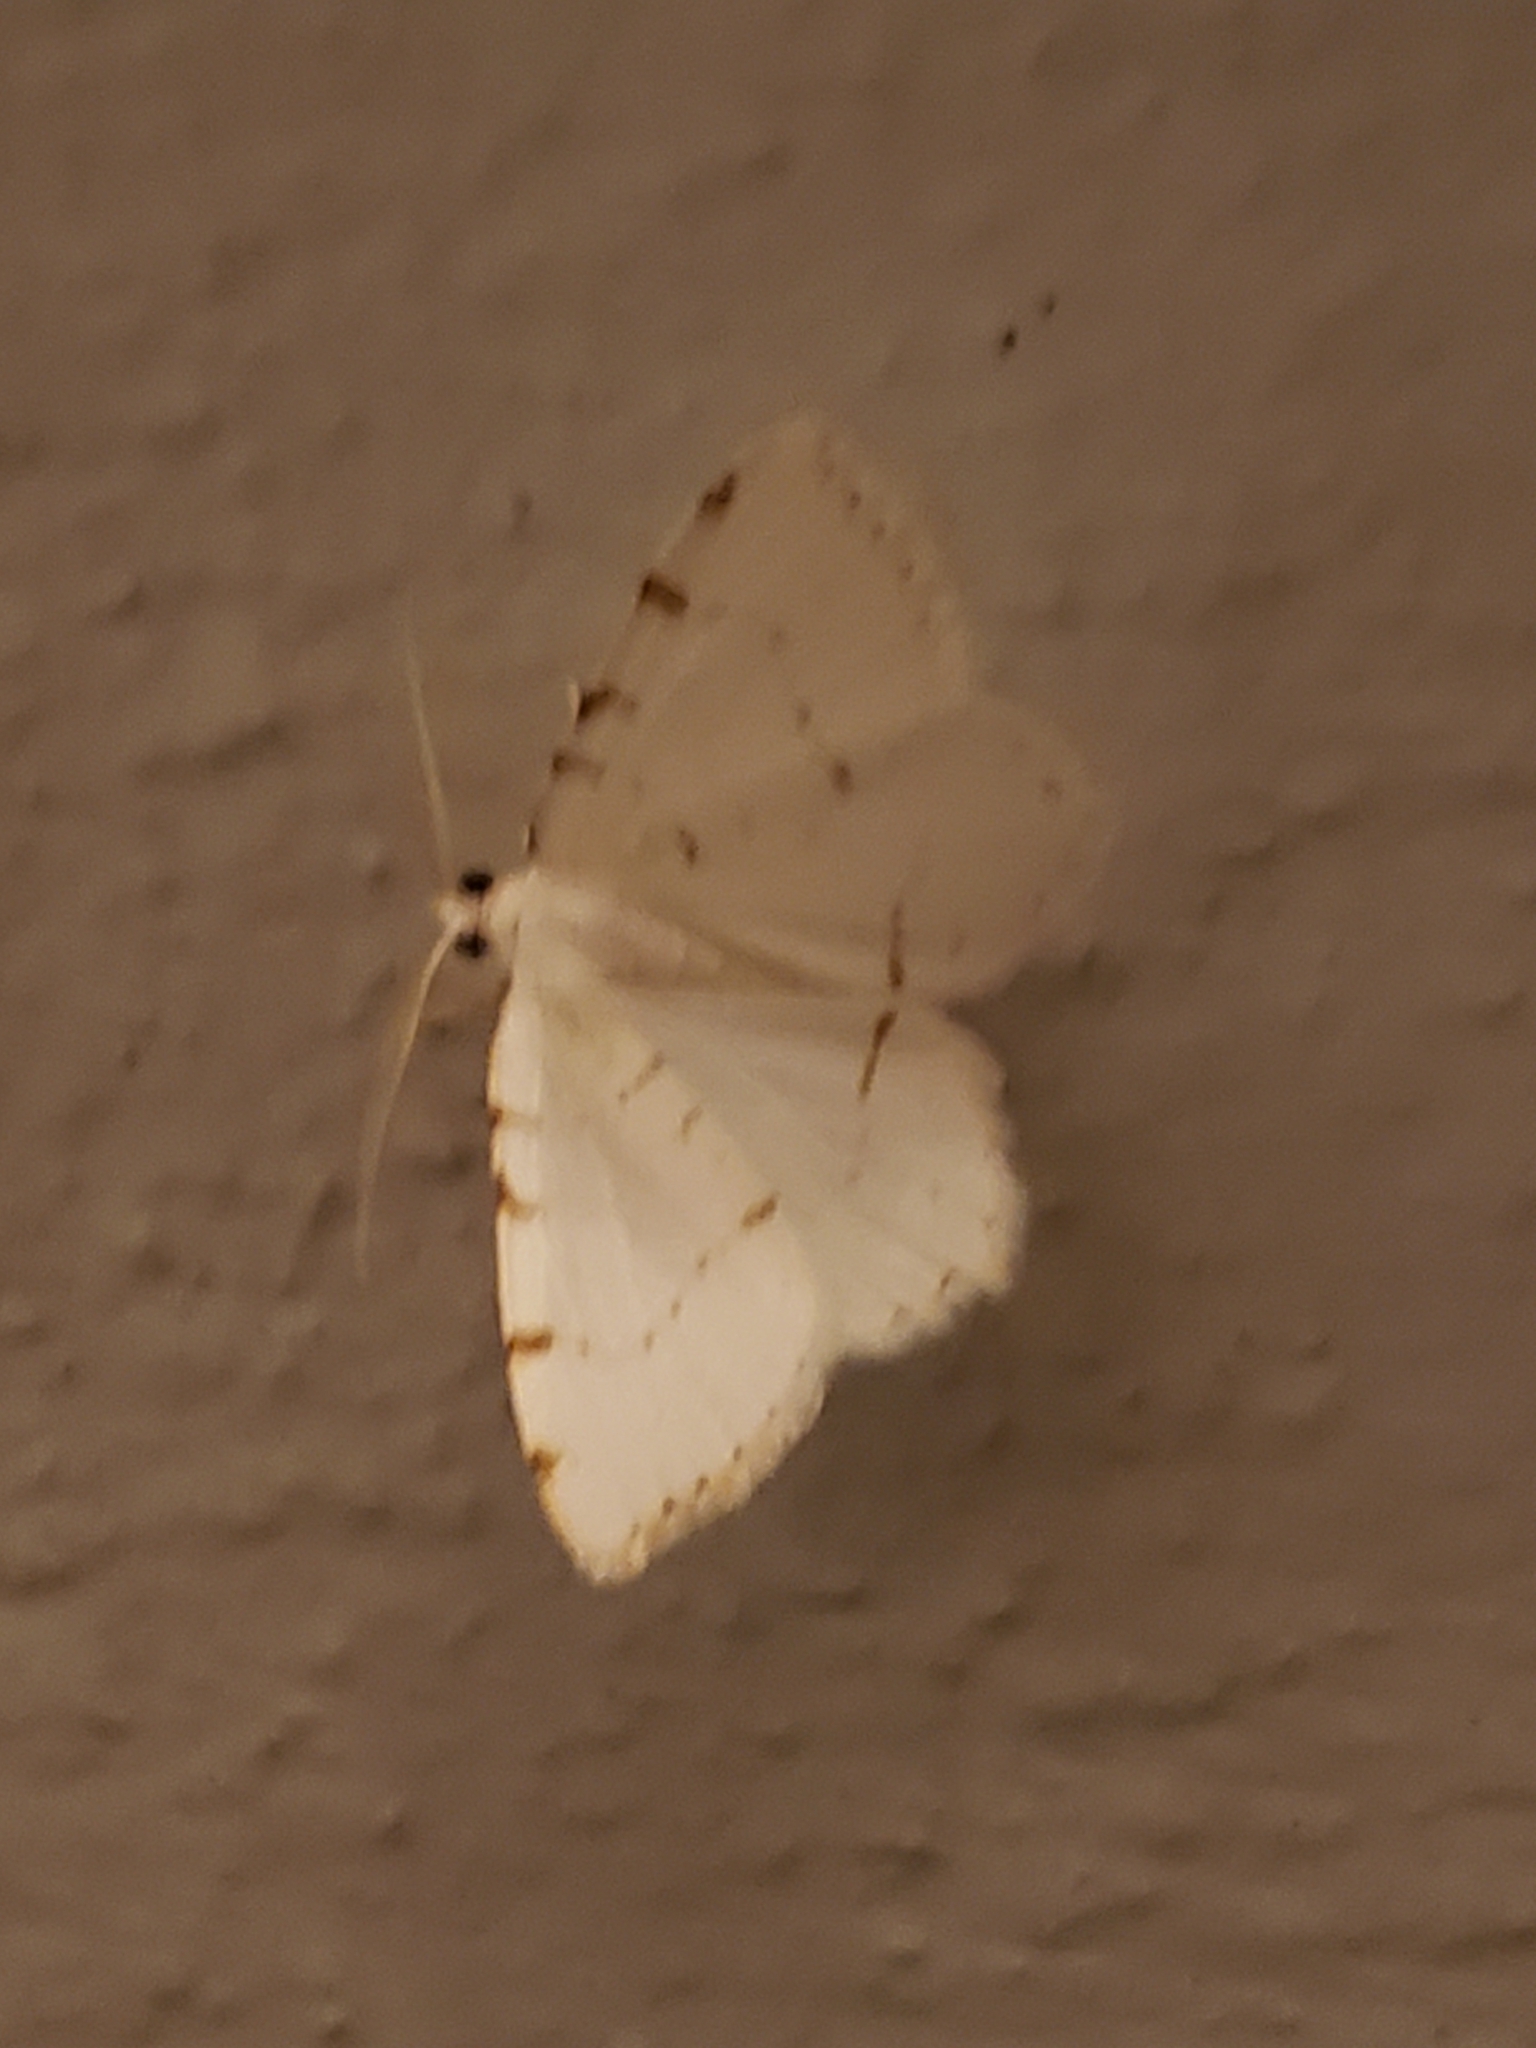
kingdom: Animalia
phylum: Arthropoda
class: Insecta
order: Lepidoptera
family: Geometridae
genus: Macaria
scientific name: Macaria pustularia
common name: Lesser maple spanworm moth
